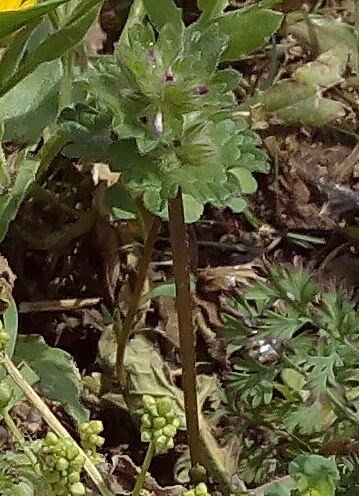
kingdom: Plantae
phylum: Tracheophyta
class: Magnoliopsida
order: Lamiales
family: Lamiaceae
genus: Lamium
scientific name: Lamium amplexicaule
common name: Henbit dead-nettle
